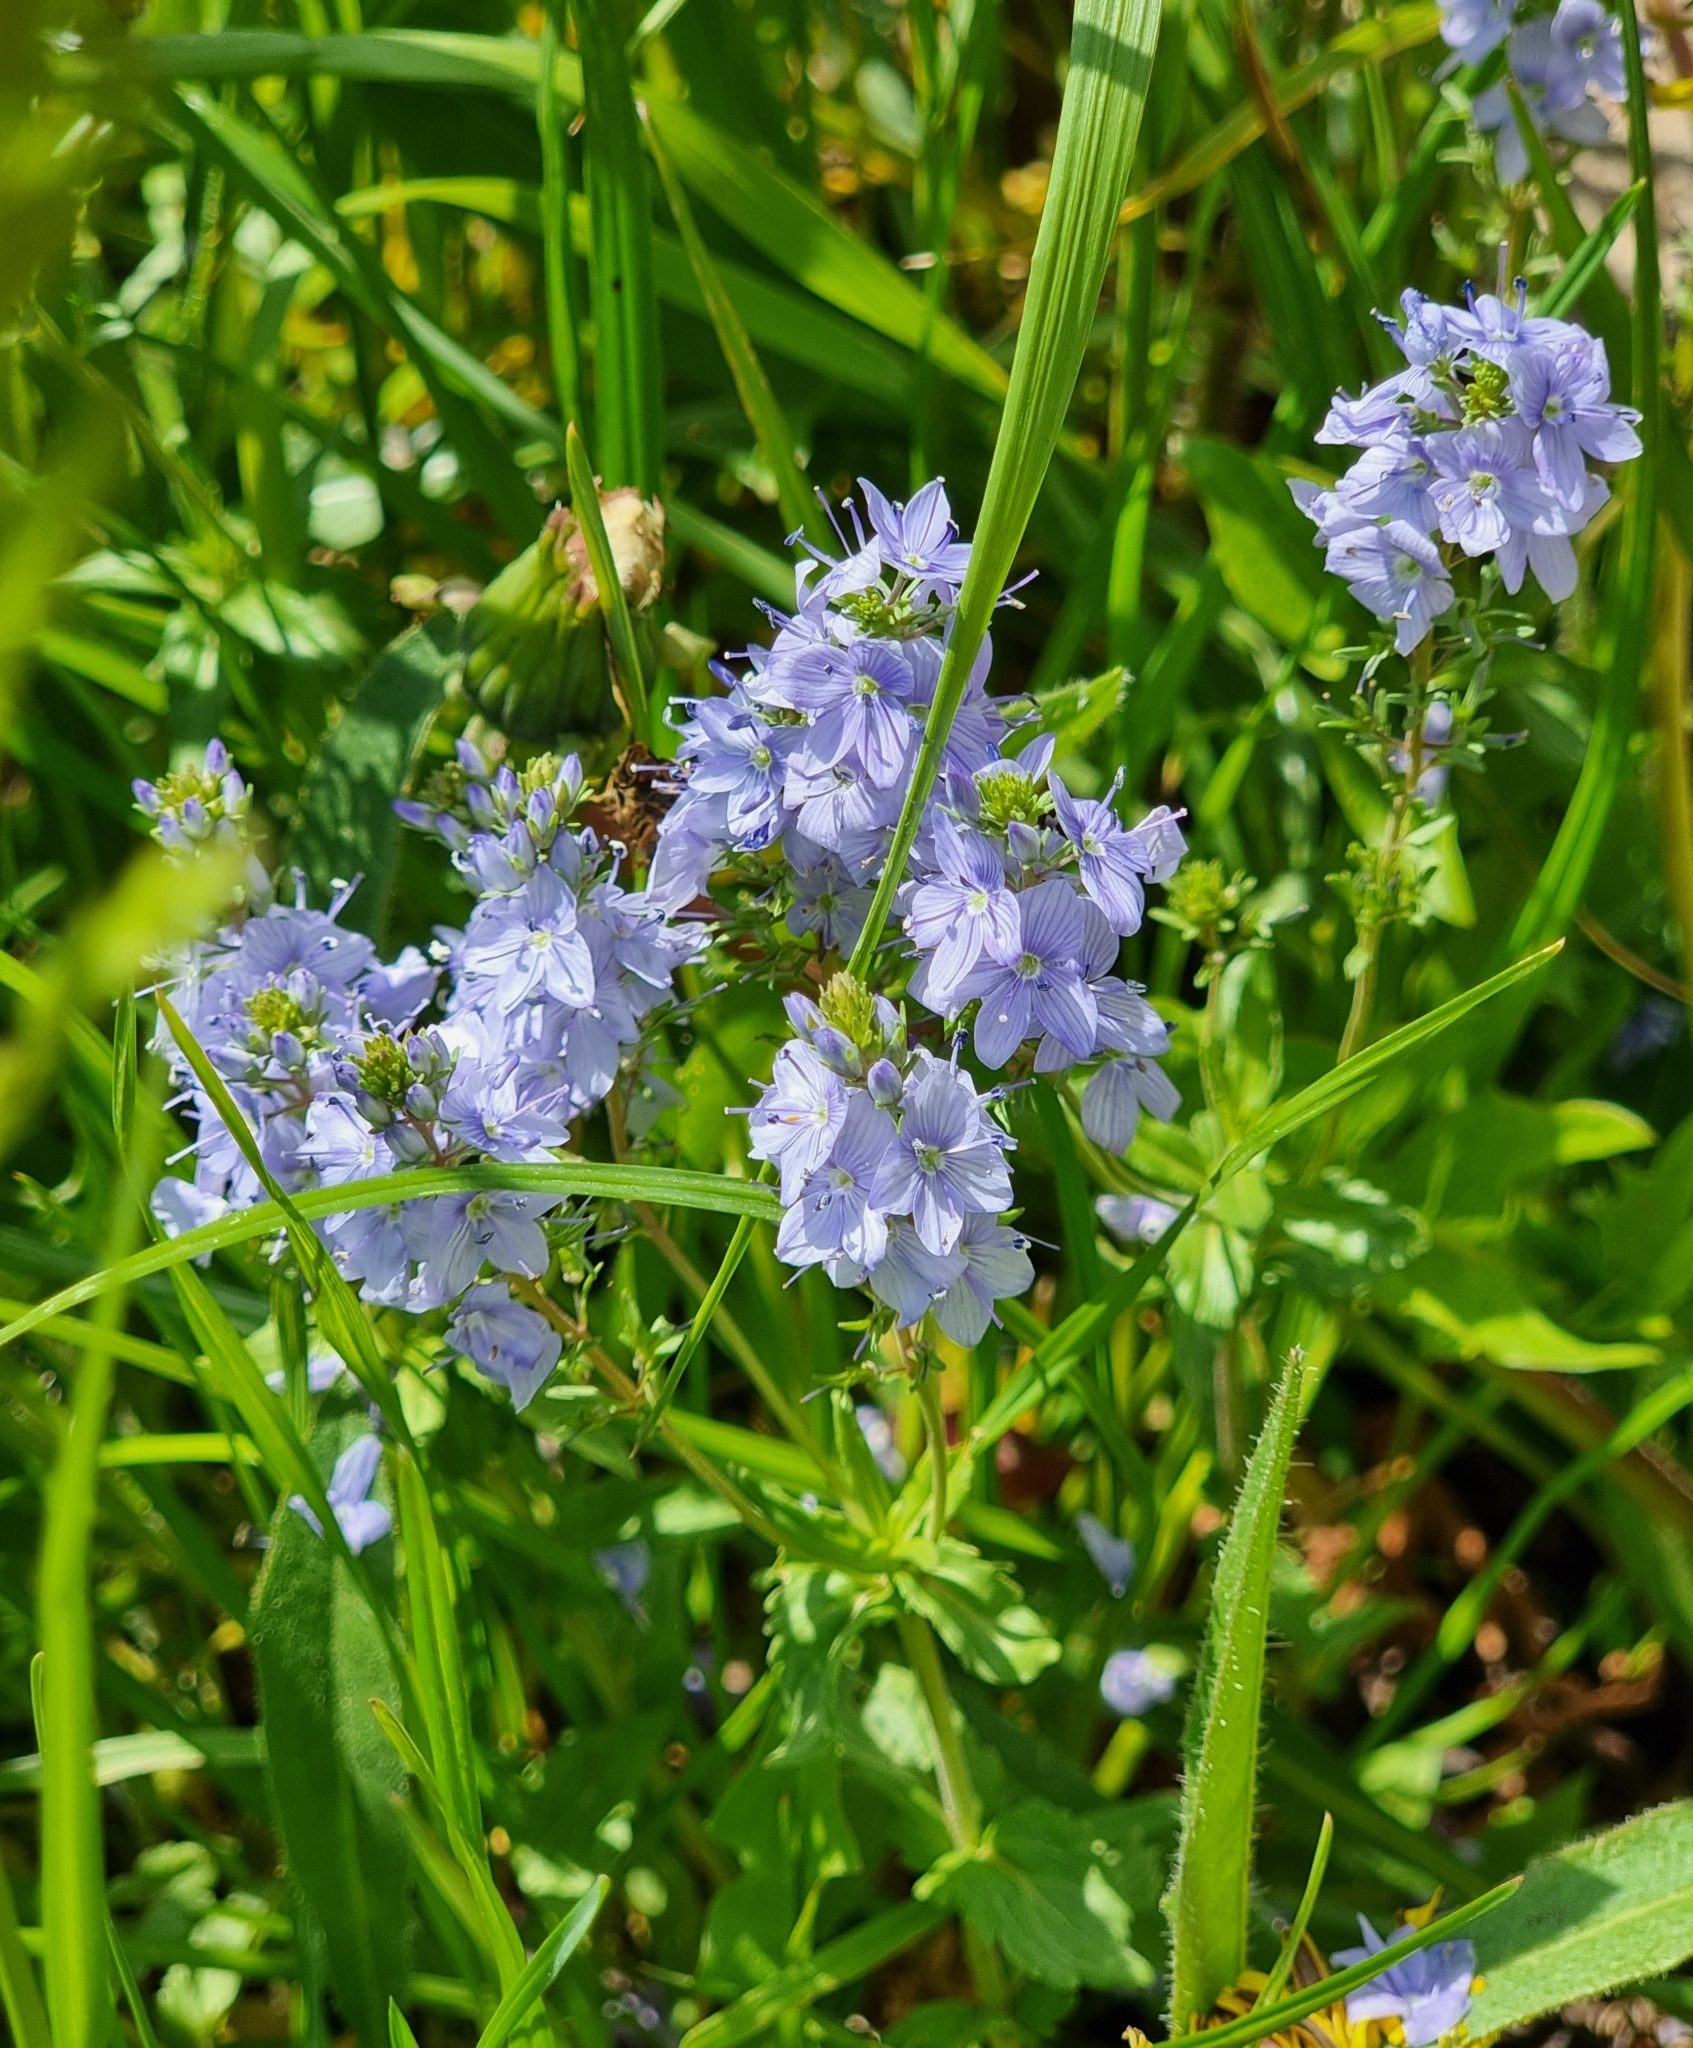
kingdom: Plantae
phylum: Tracheophyta
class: Magnoliopsida
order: Lamiales
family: Plantaginaceae
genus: Veronica
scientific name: Veronica prostrata
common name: Prostrate speedwell
